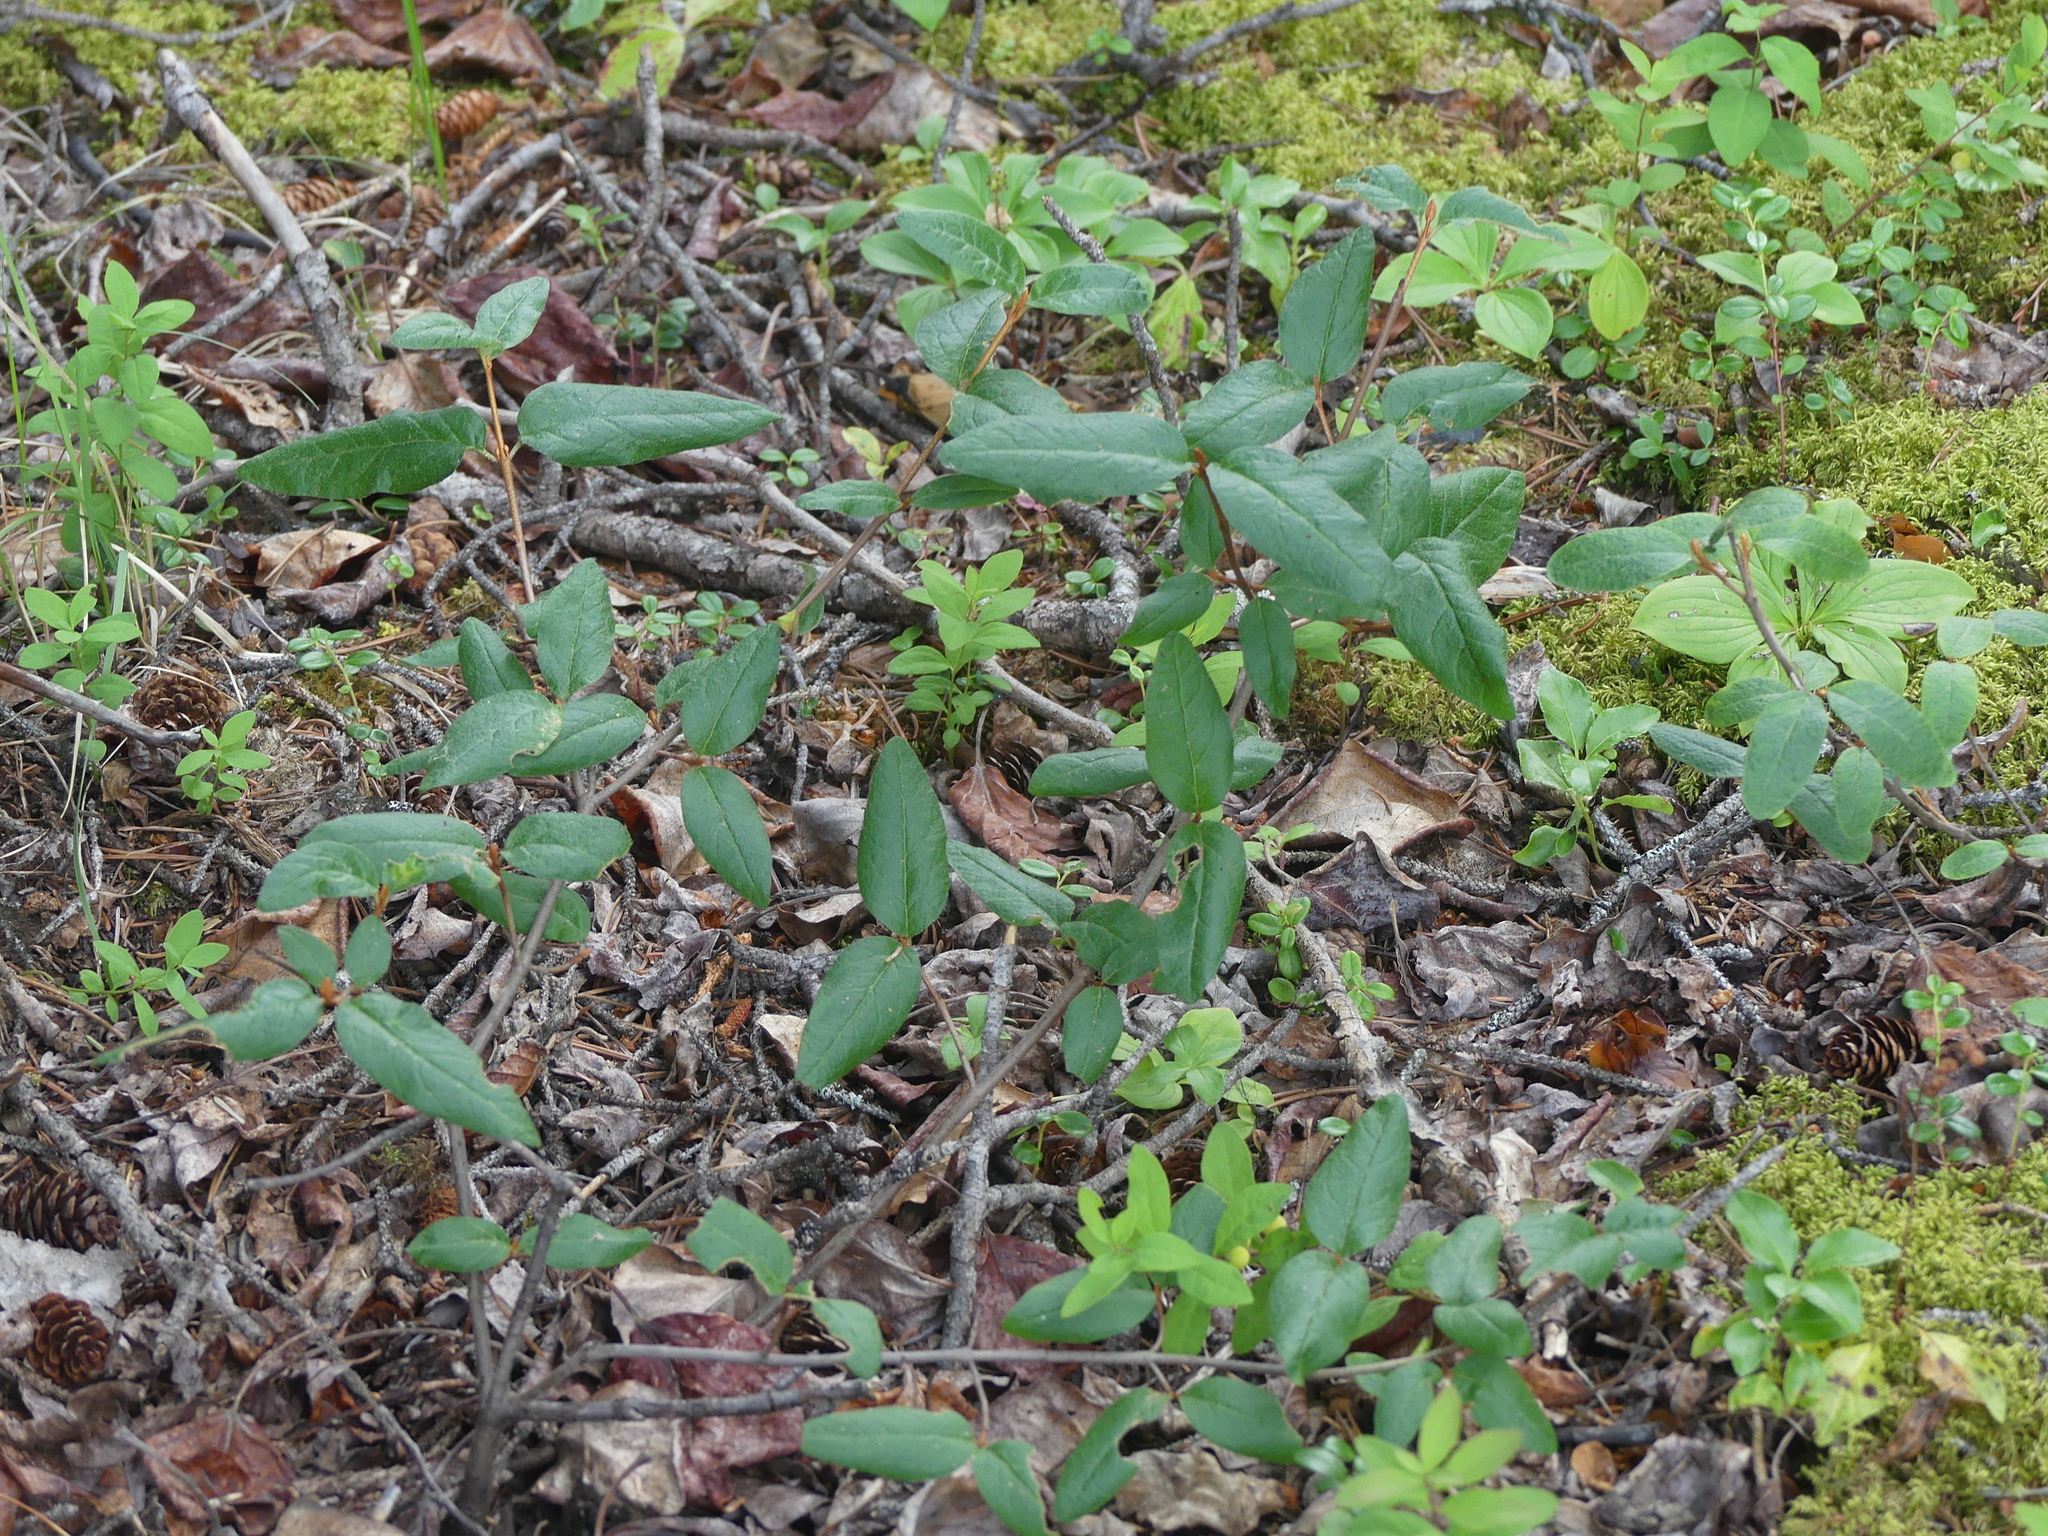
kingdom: Plantae
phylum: Tracheophyta
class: Magnoliopsida
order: Rosales
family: Elaeagnaceae
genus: Shepherdia
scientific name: Shepherdia canadensis
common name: Soapberry
